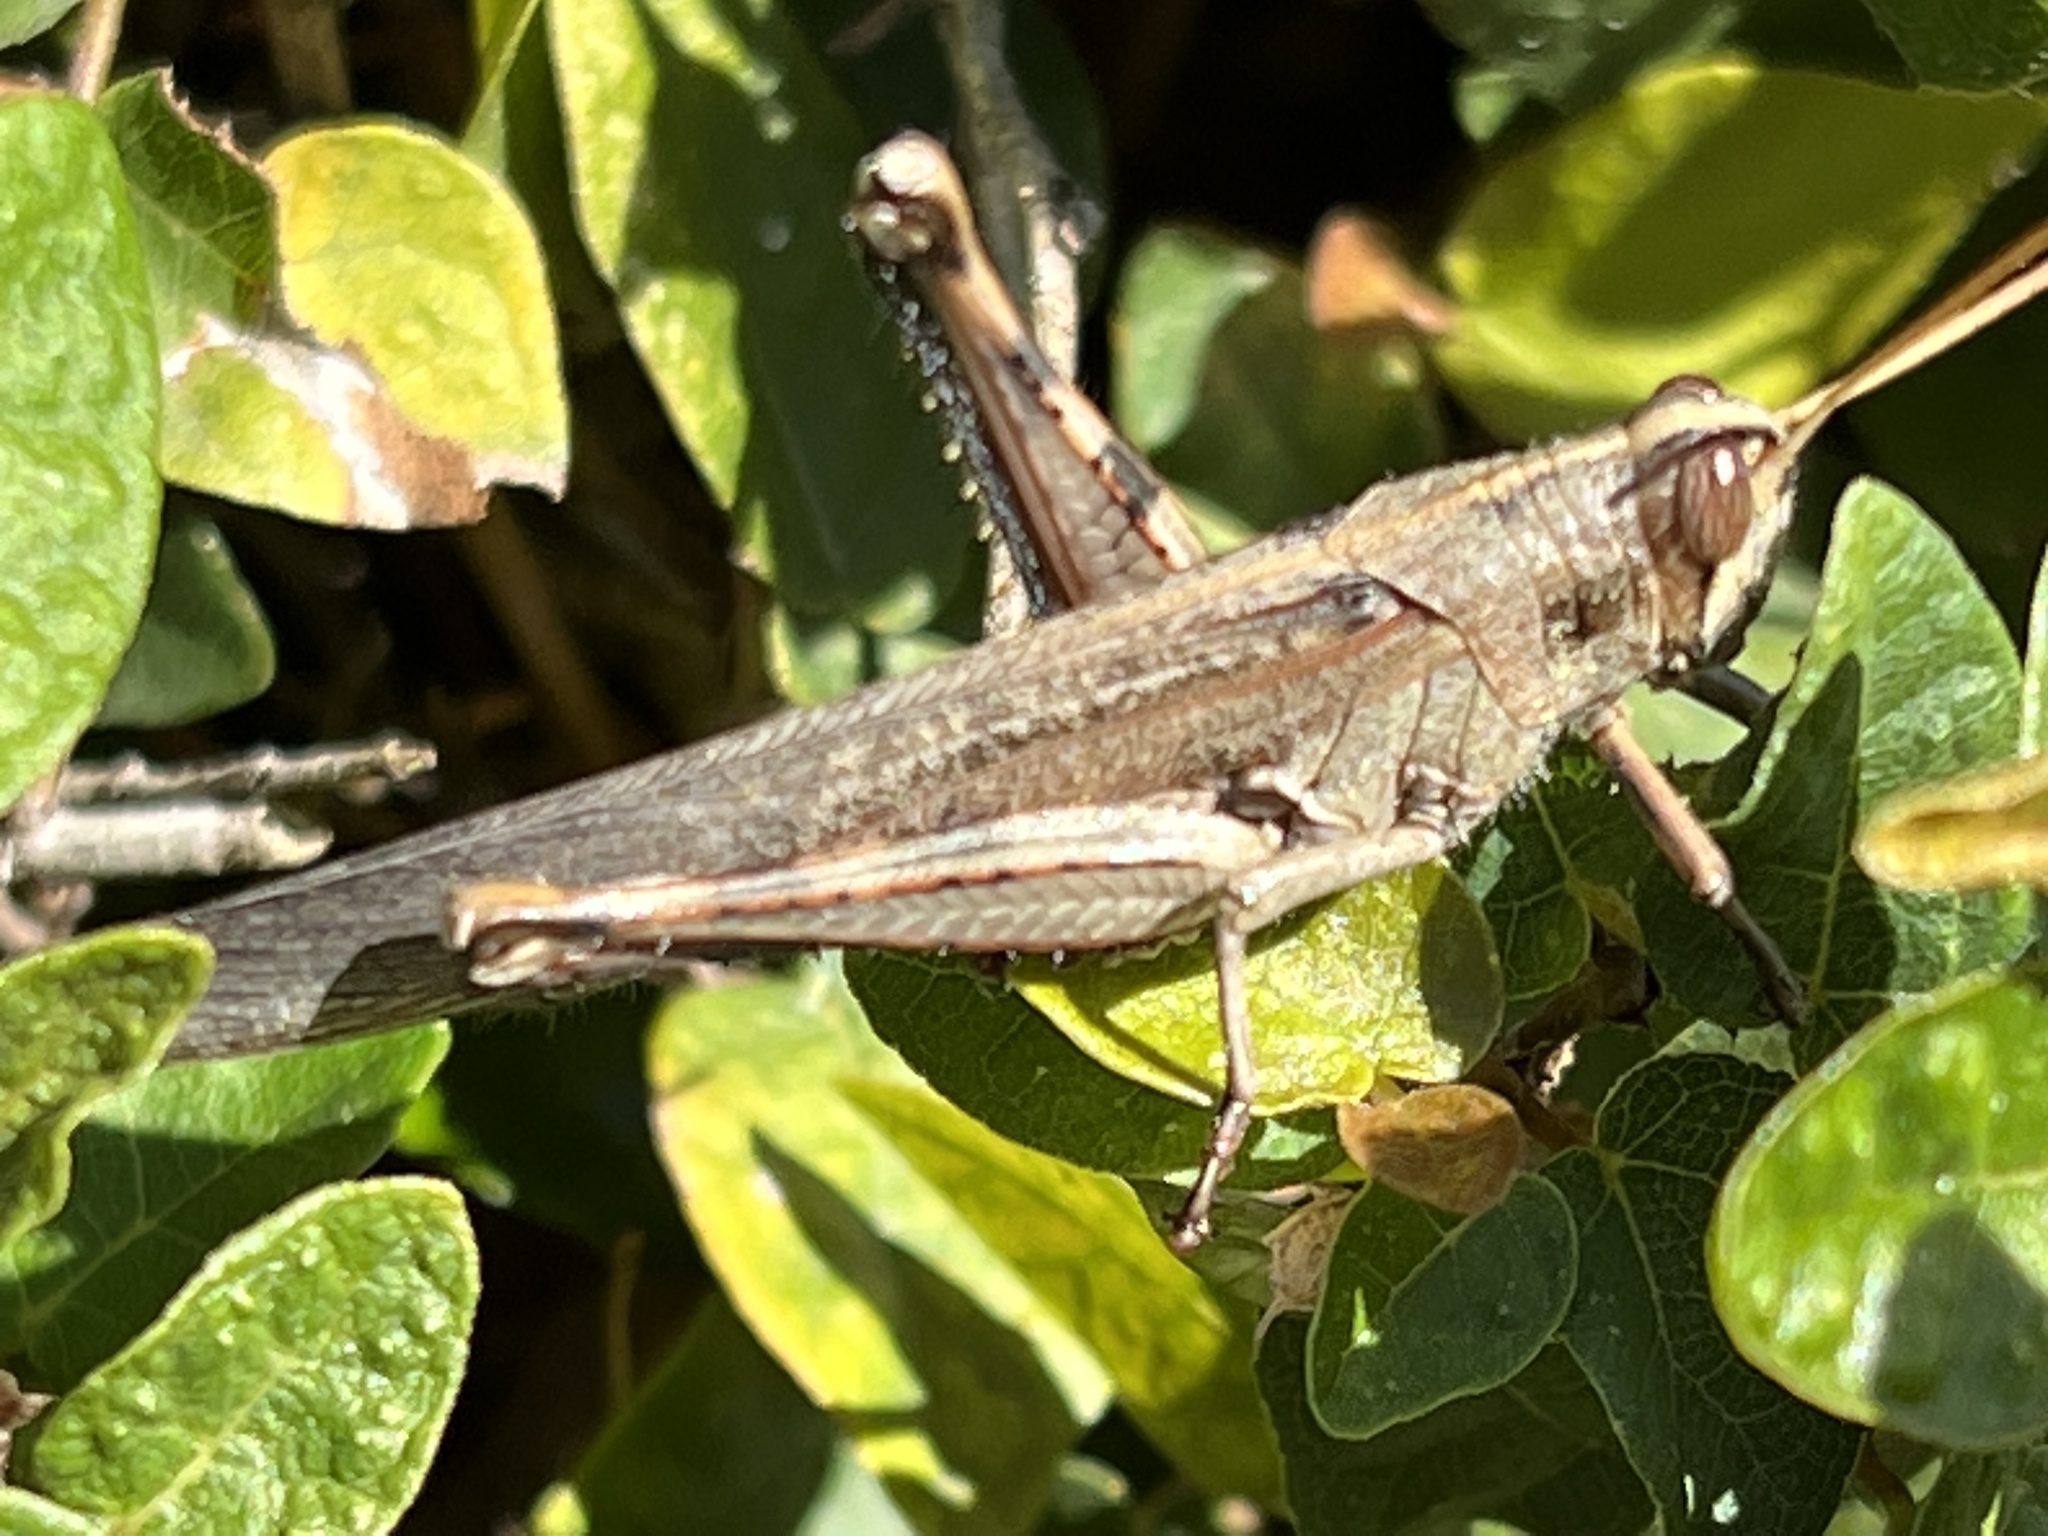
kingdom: Animalia
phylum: Arthropoda
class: Insecta
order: Orthoptera
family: Acrididae
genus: Schistocerca
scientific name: Schistocerca nitens
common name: Vagrant grasshopper
